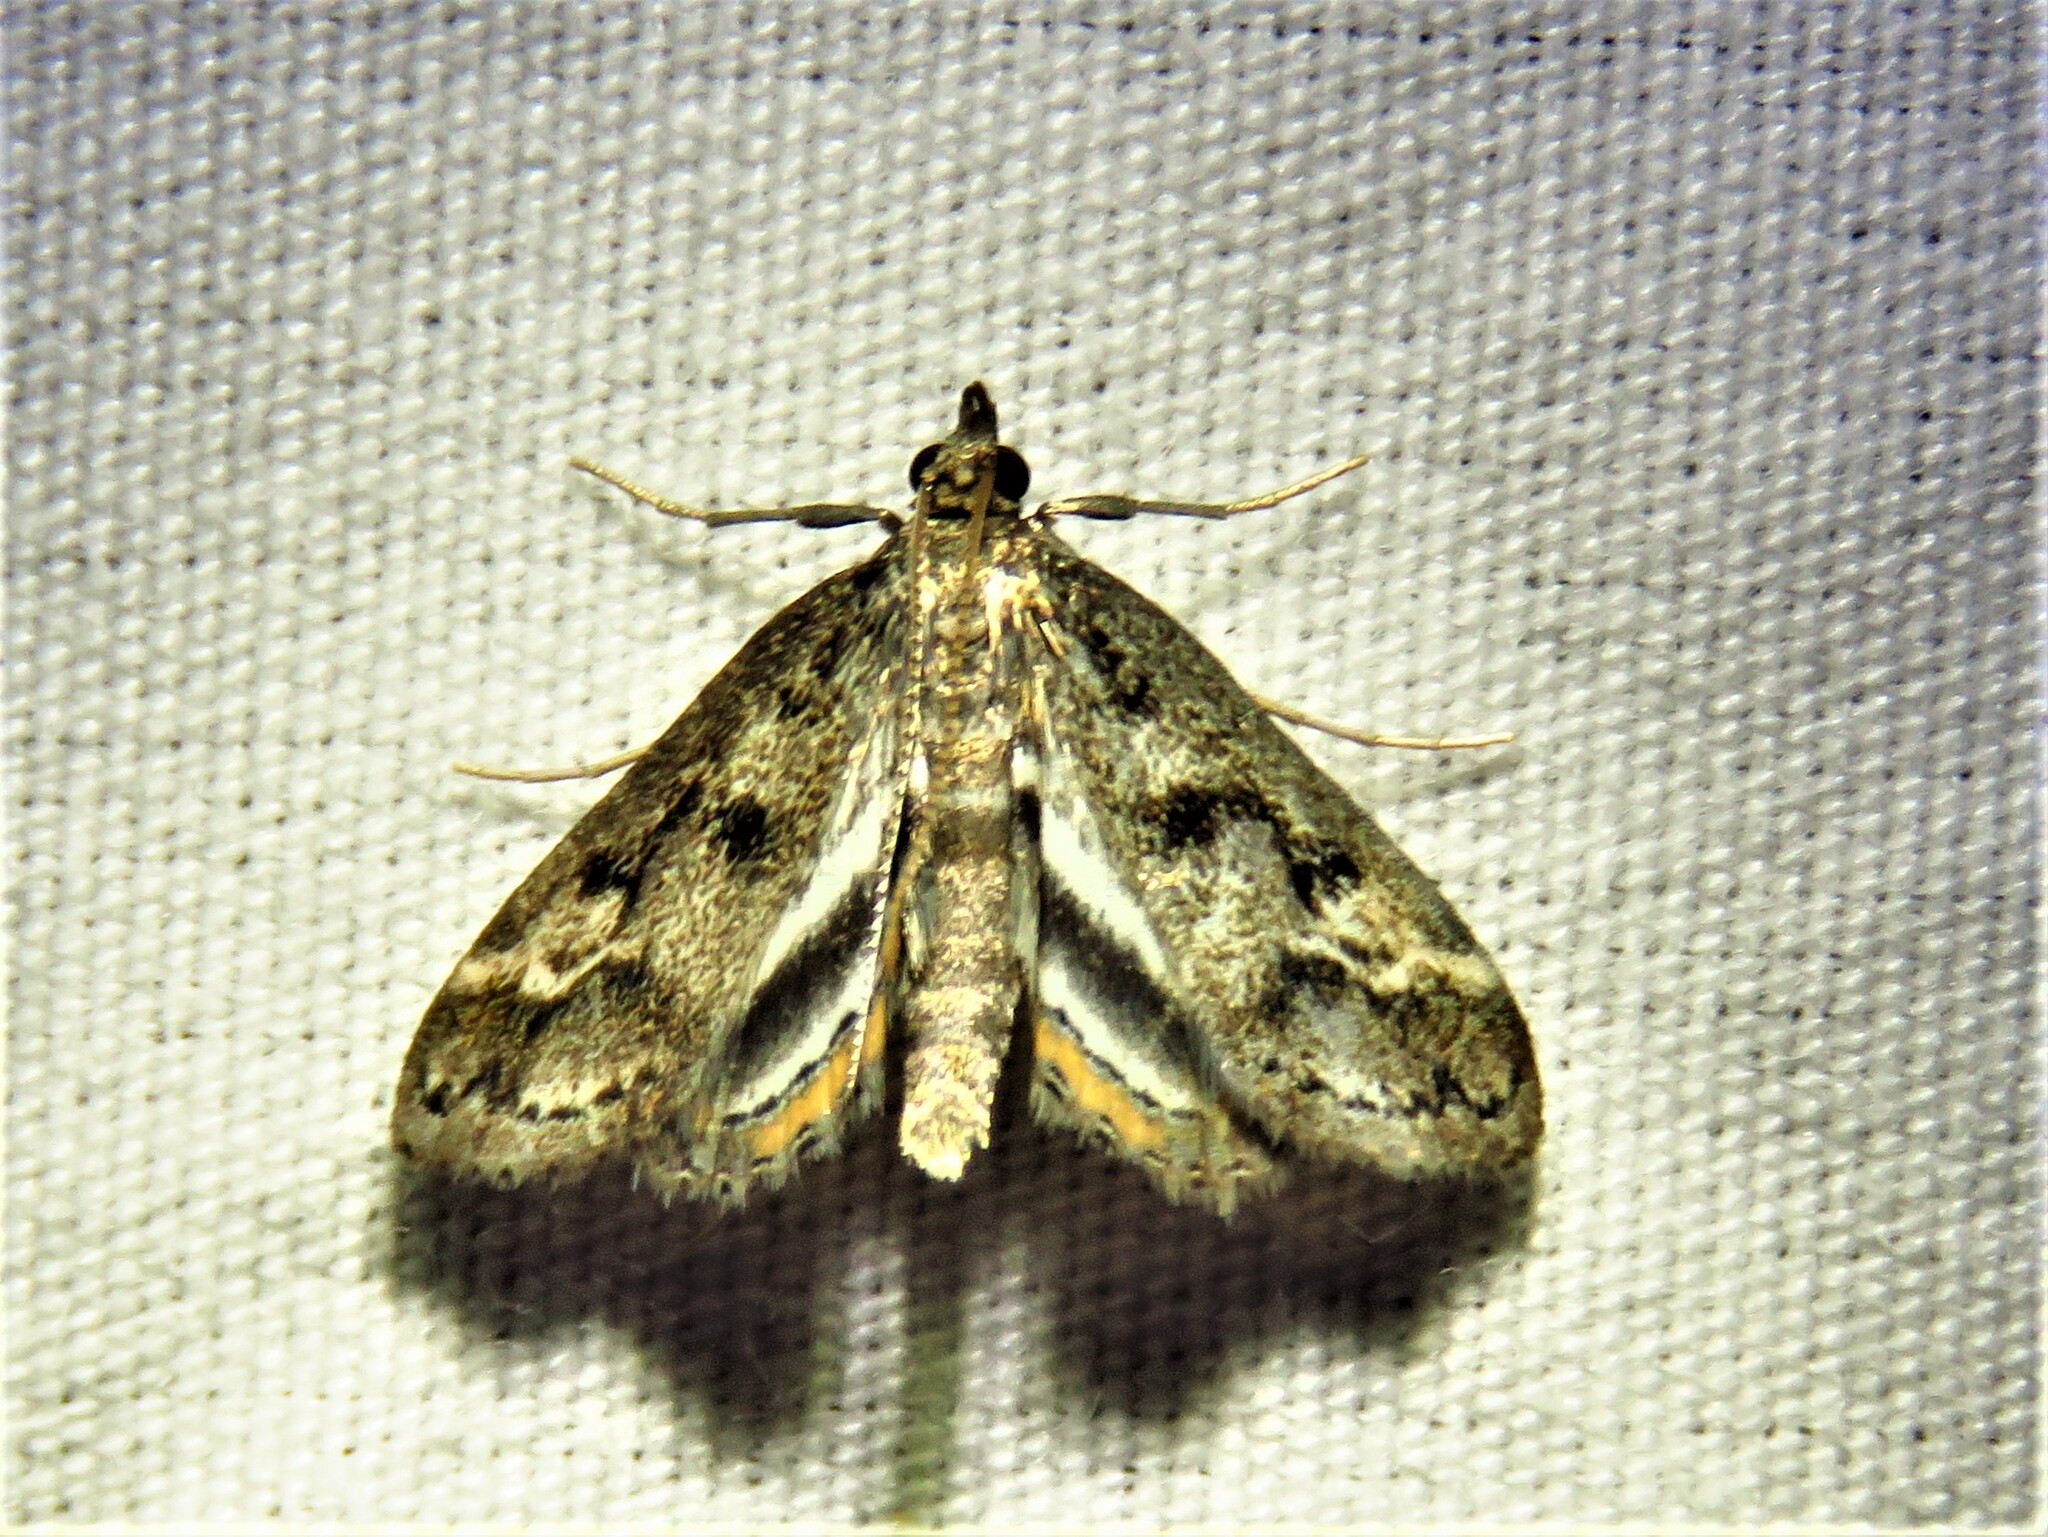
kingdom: Animalia
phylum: Arthropoda
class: Insecta
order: Lepidoptera
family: Crambidae
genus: Parapoynx
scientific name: Parapoynx obscuralis
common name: American china-mark
